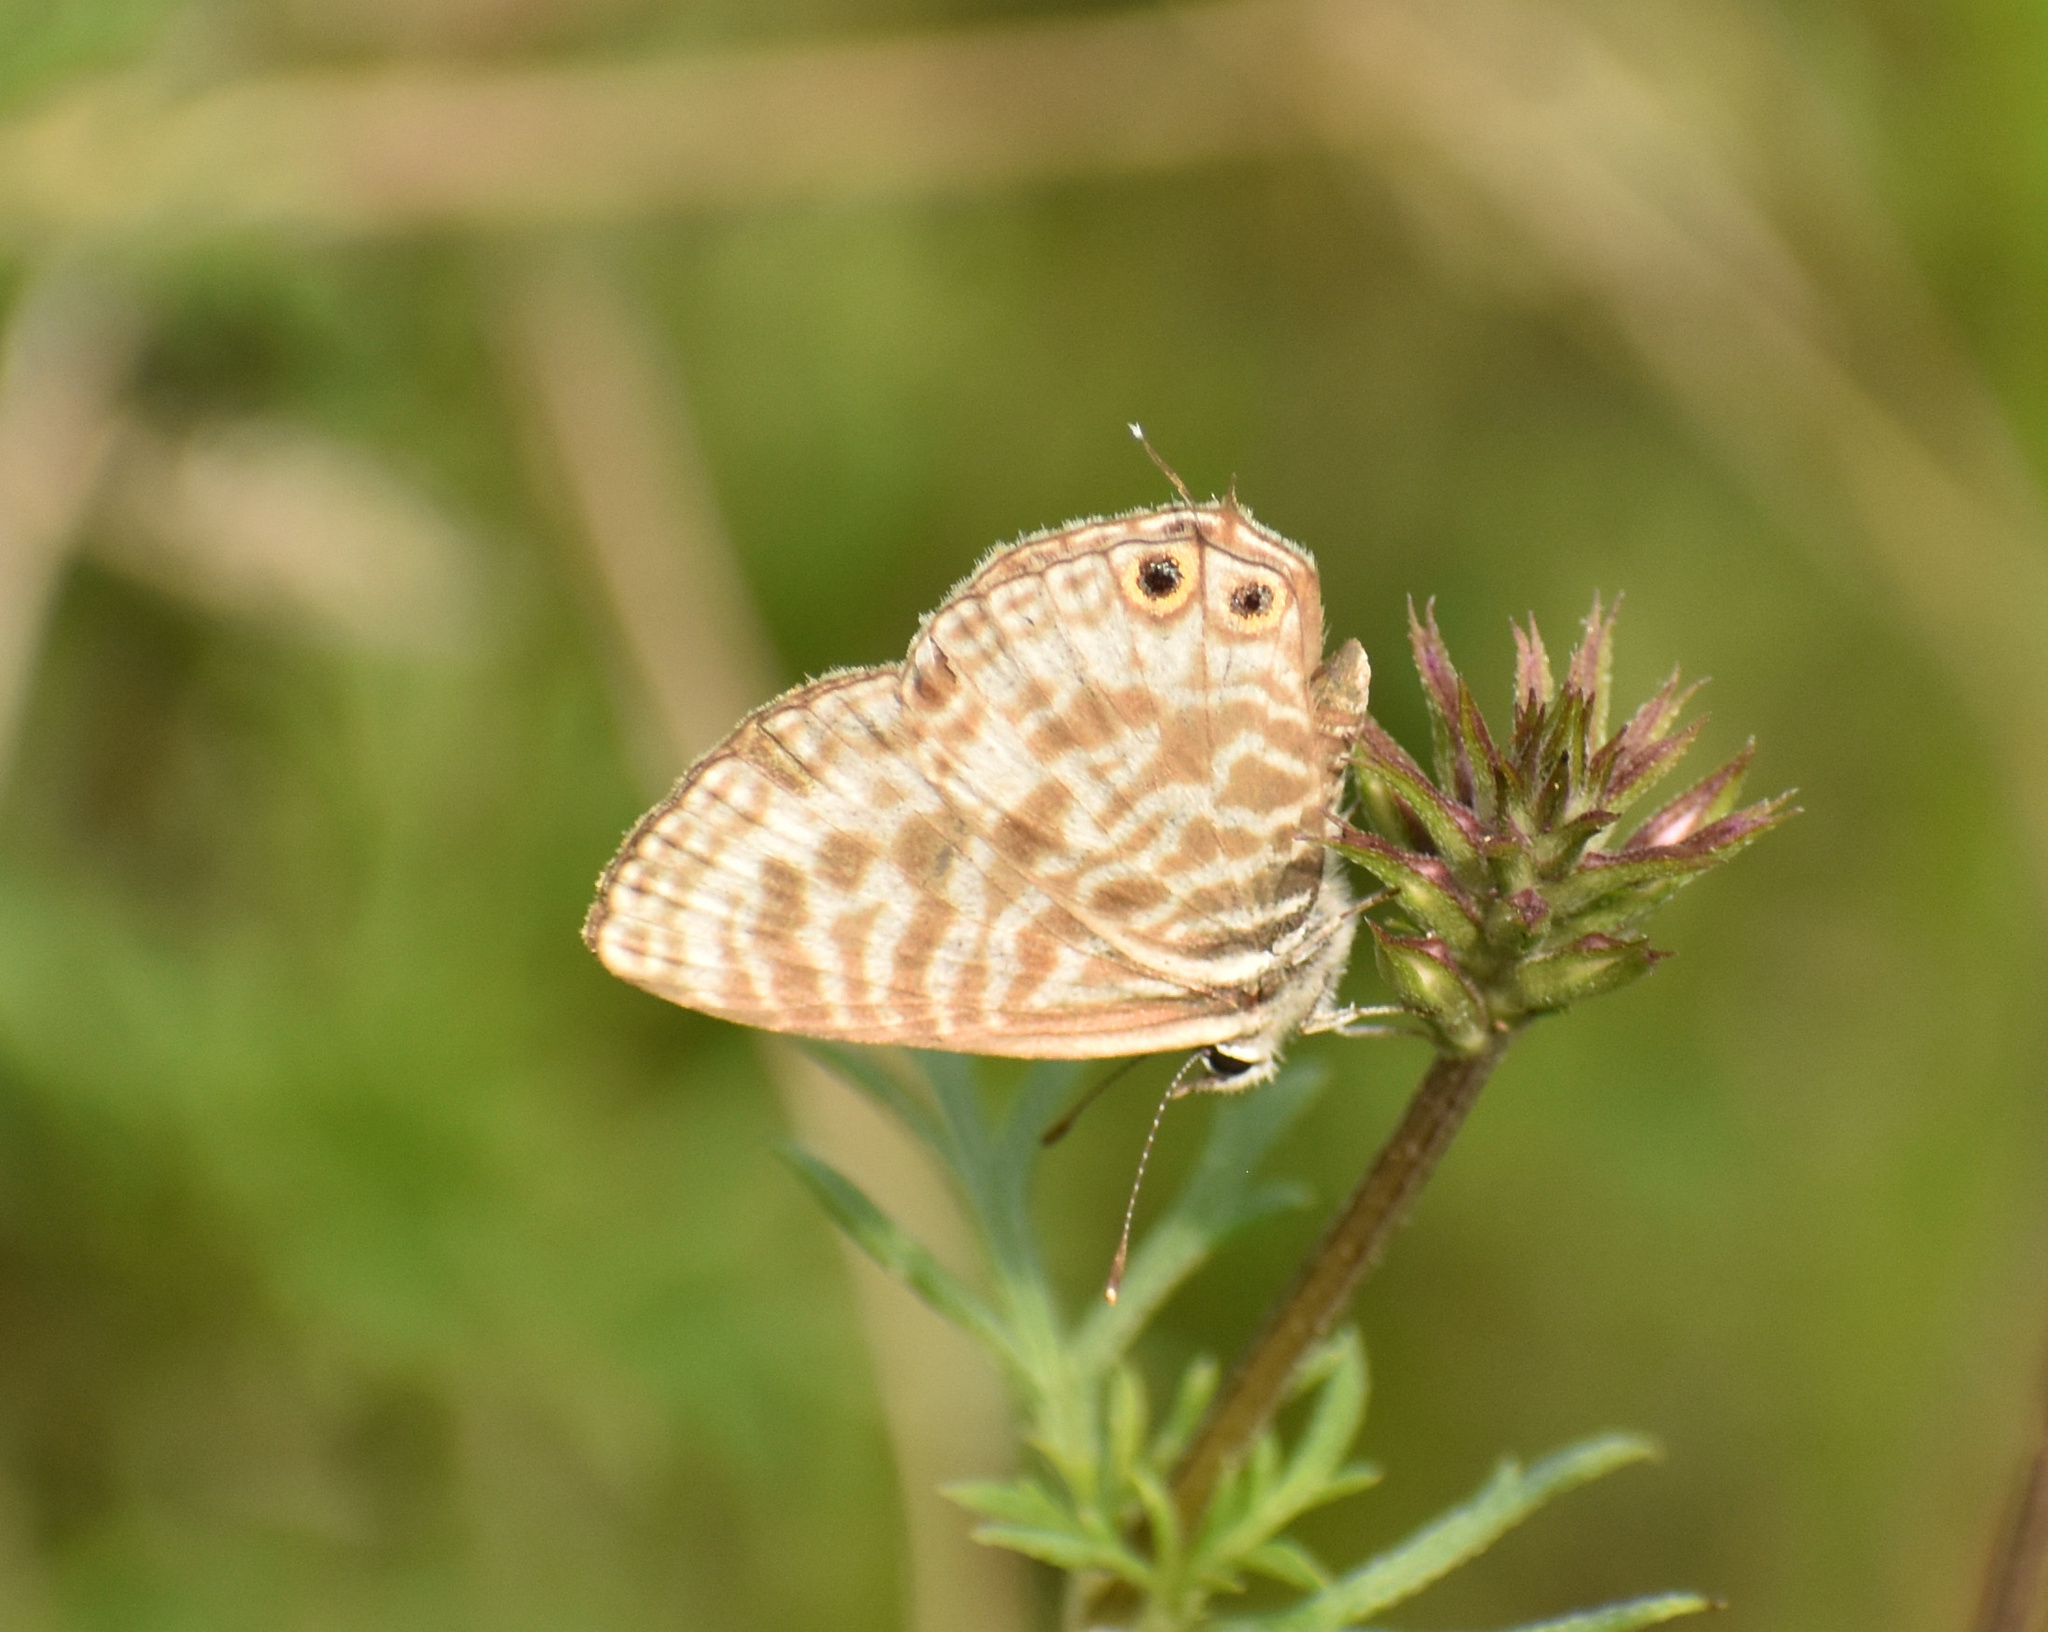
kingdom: Animalia
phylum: Arthropoda
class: Insecta
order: Lepidoptera
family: Lycaenidae
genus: Leptotes
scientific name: Leptotes
